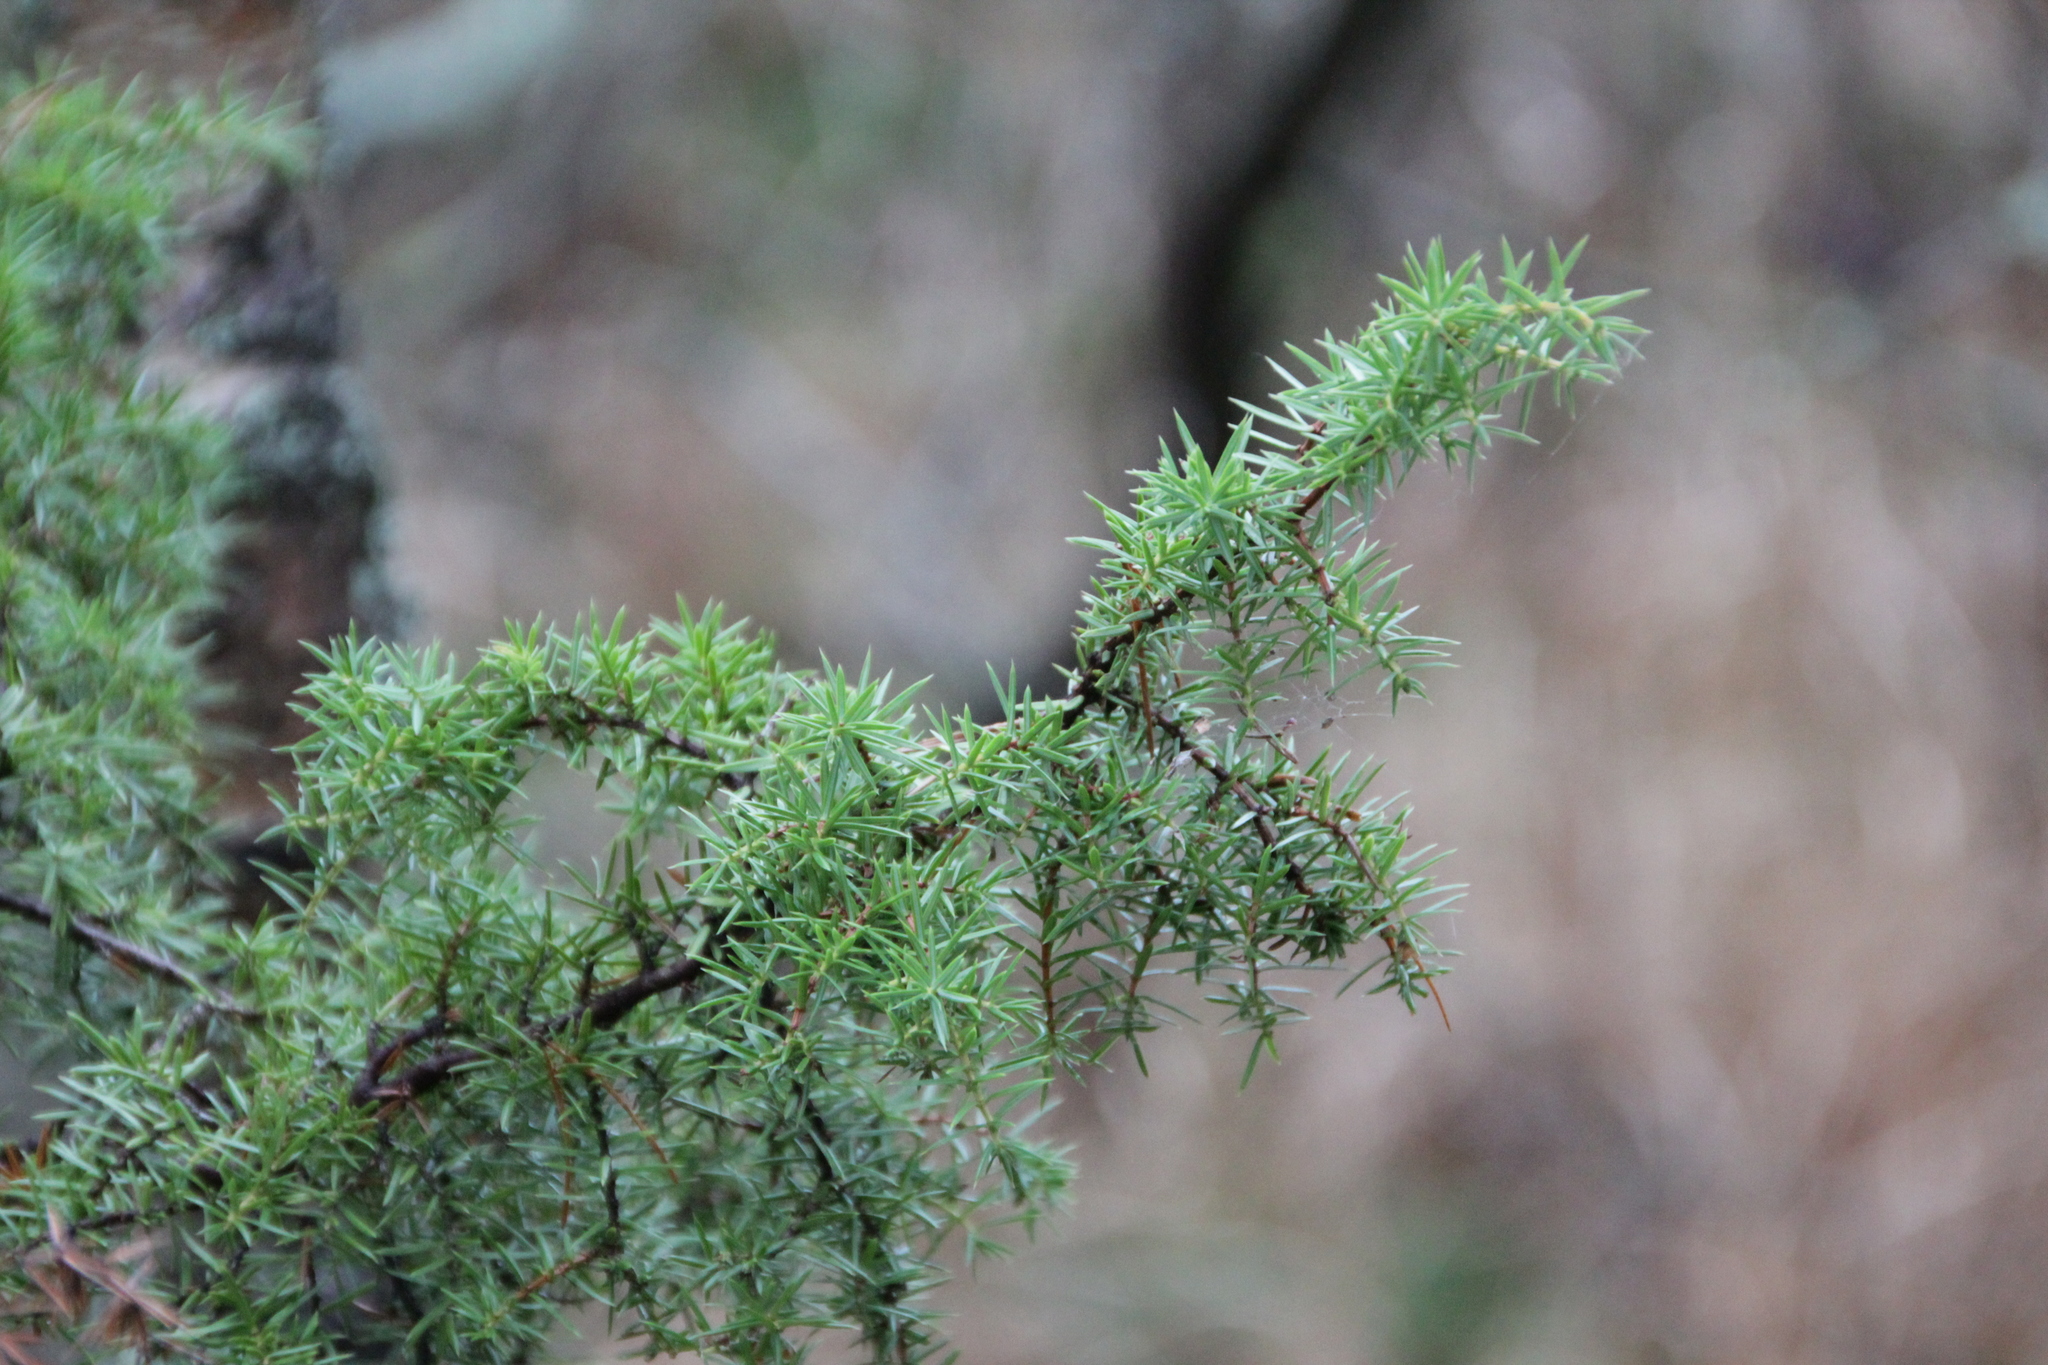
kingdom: Plantae
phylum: Tracheophyta
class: Pinopsida
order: Pinales
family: Cupressaceae
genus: Juniperus
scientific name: Juniperus communis
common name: Common juniper
